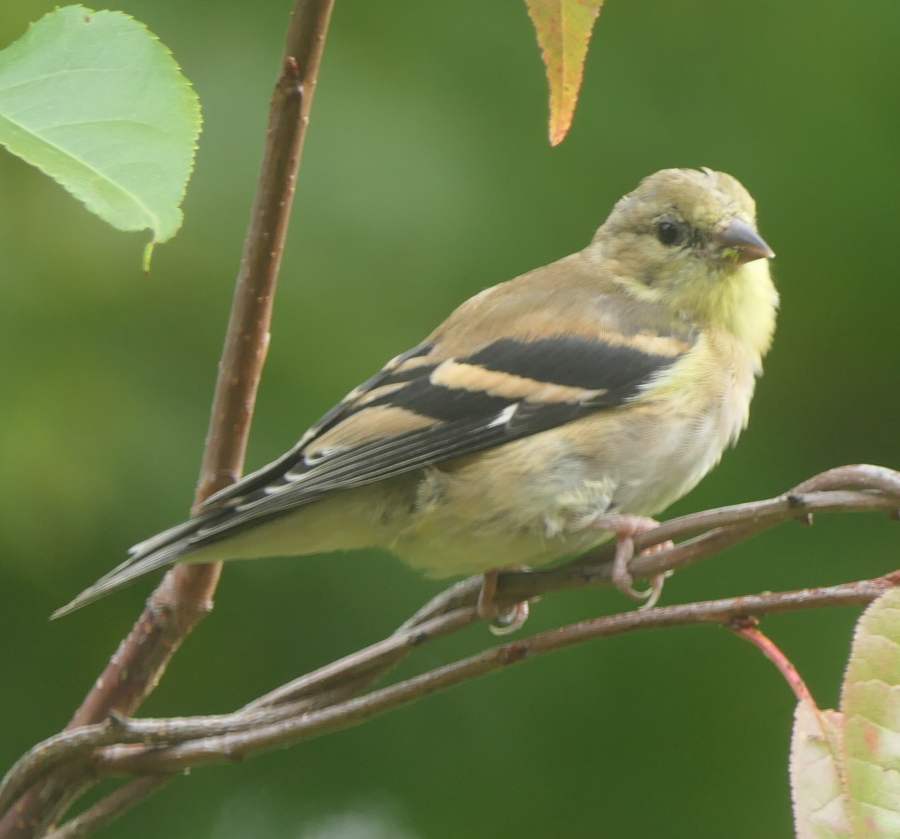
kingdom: Animalia
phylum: Chordata
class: Aves
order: Passeriformes
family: Fringillidae
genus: Spinus
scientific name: Spinus tristis
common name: American goldfinch
